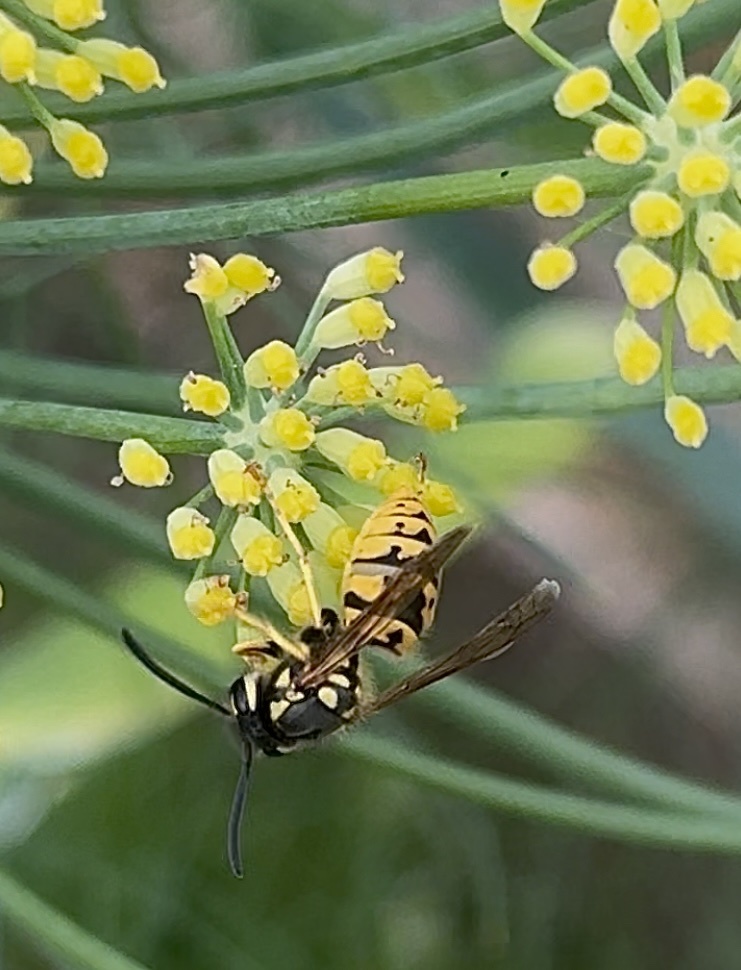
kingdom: Animalia
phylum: Arthropoda
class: Insecta
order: Hymenoptera
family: Vespidae
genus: Vespula
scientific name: Vespula germanica
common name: German wasp
